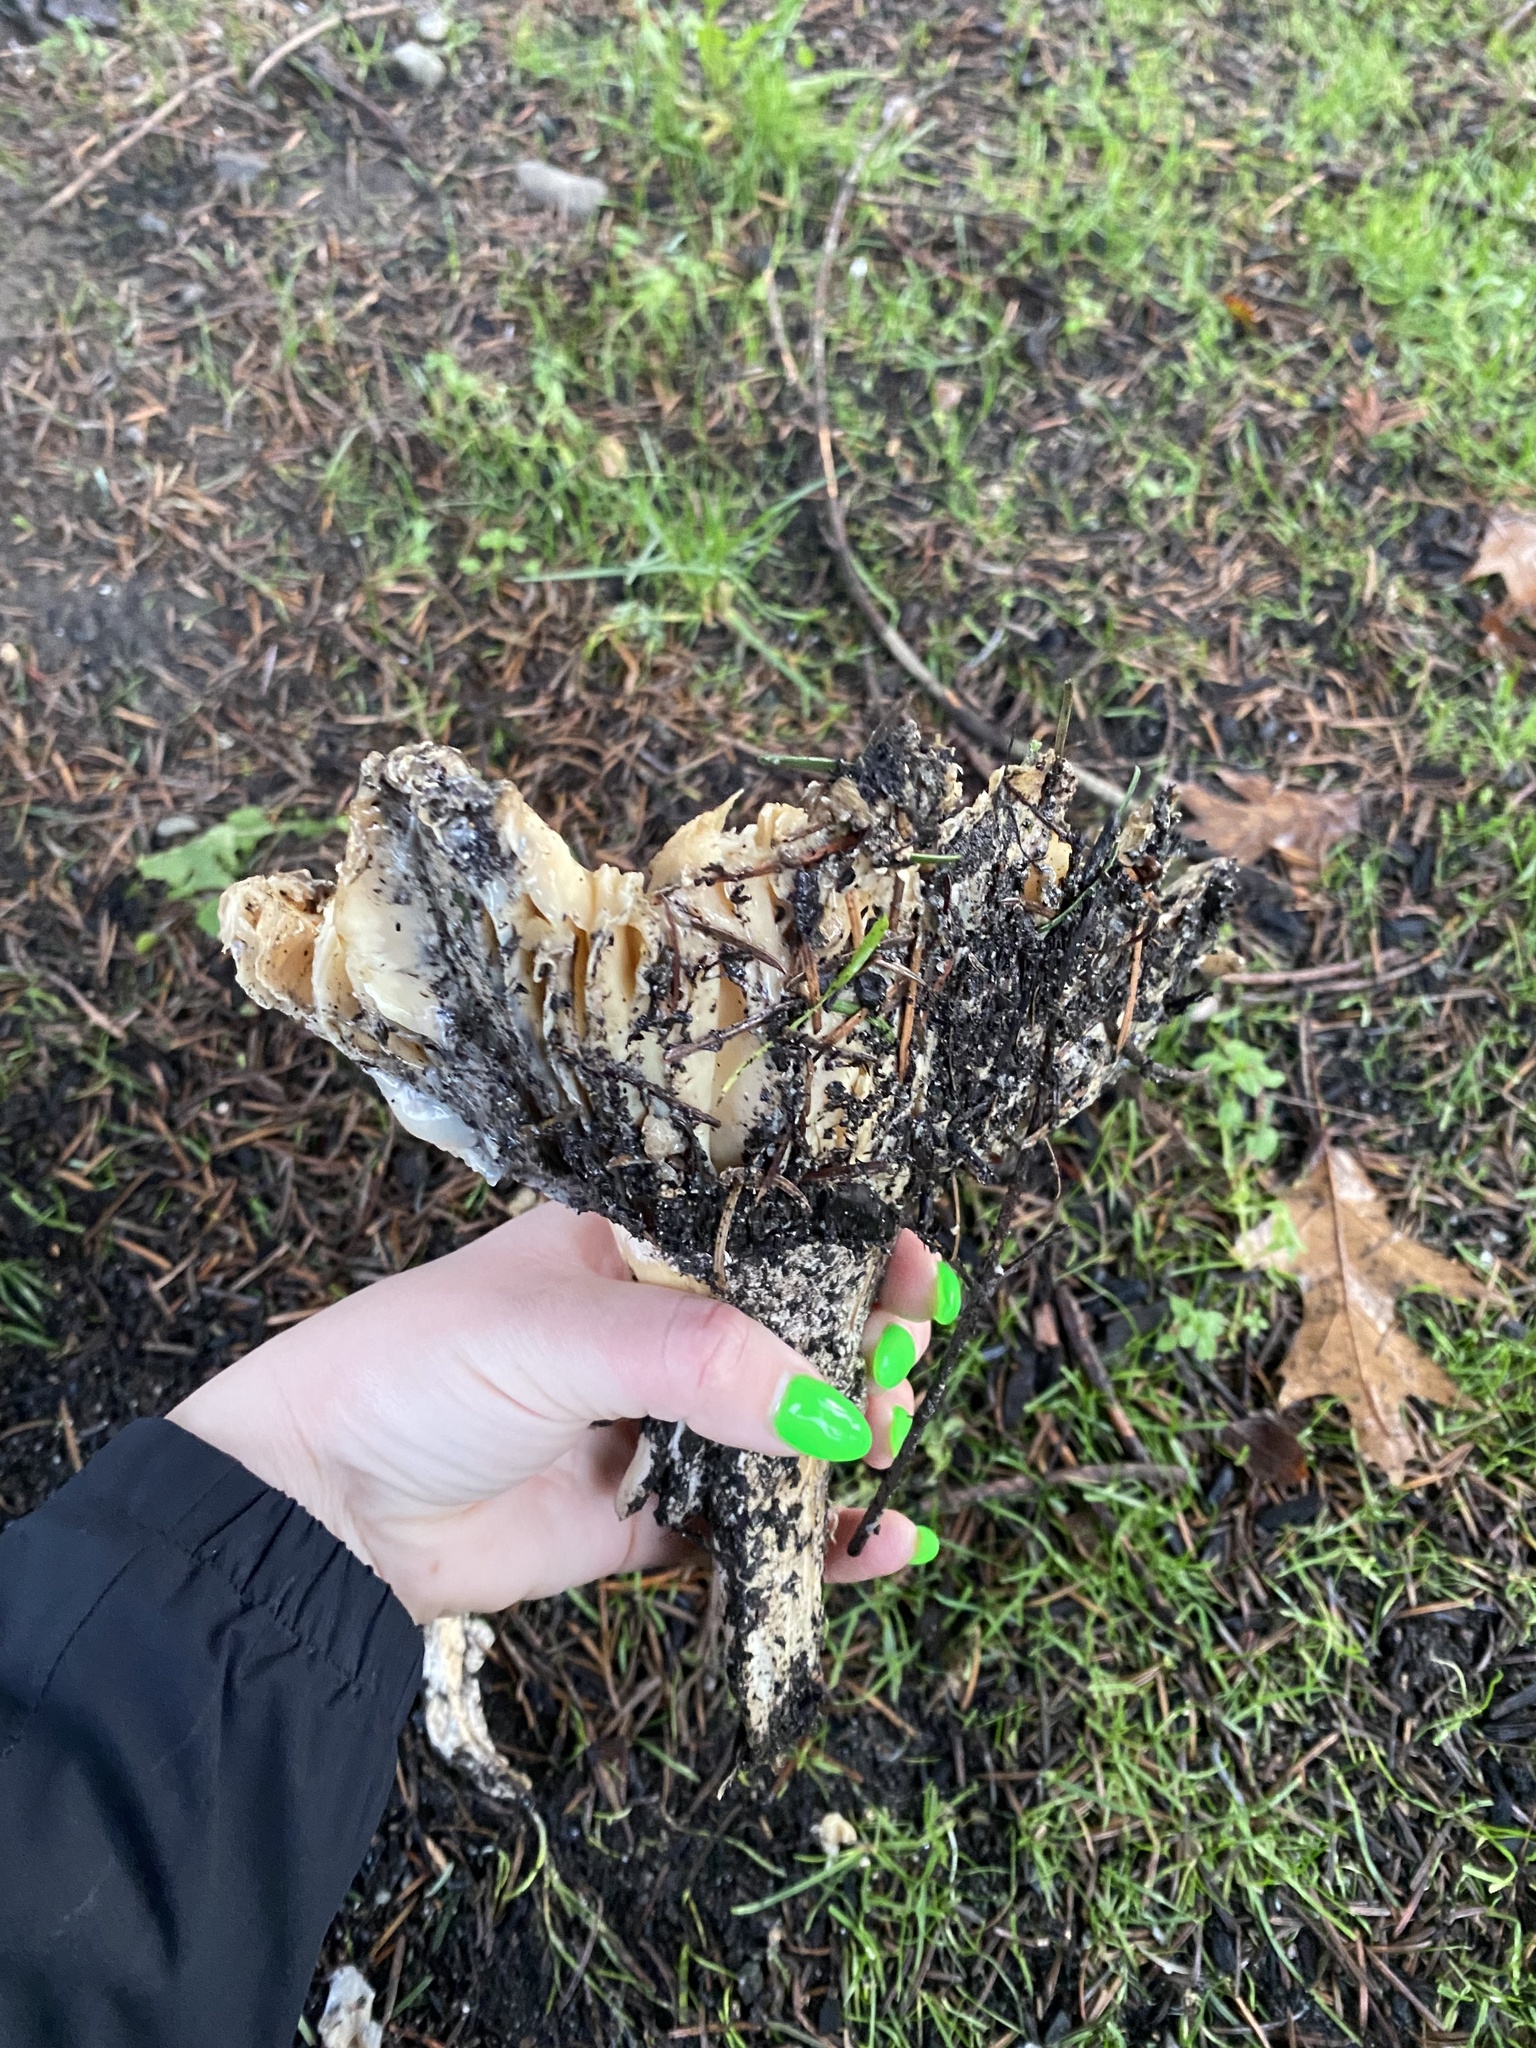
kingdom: Fungi
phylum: Basidiomycota
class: Agaricomycetes
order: Agaricales
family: Amanitaceae
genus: Amanita
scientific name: Amanita muscaria
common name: Fly agaric
